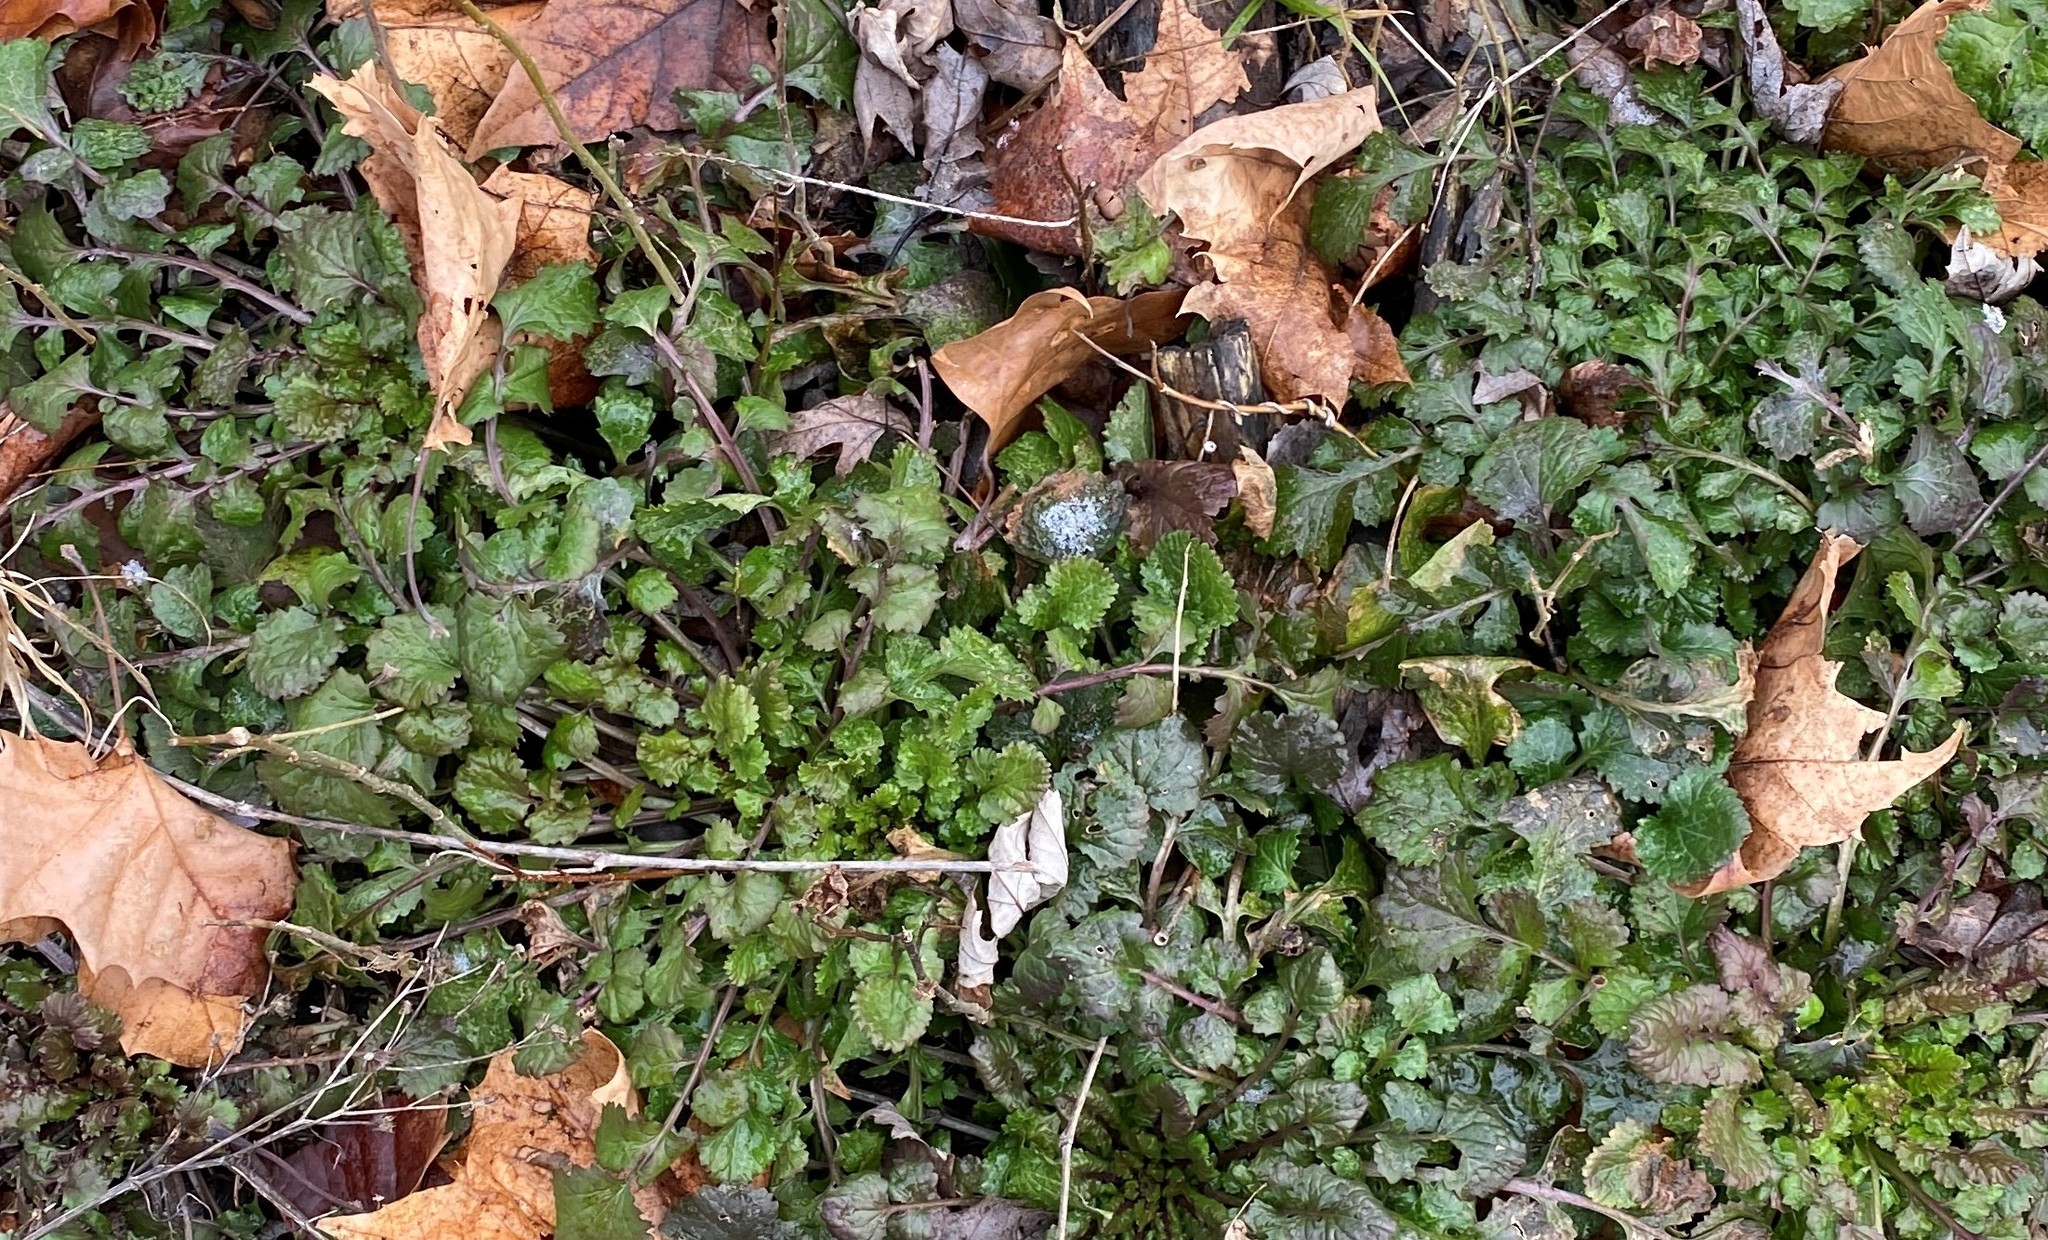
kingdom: Plantae
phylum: Tracheophyta
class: Magnoliopsida
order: Asterales
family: Asteraceae
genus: Packera
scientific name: Packera glabella
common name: Butterweed
